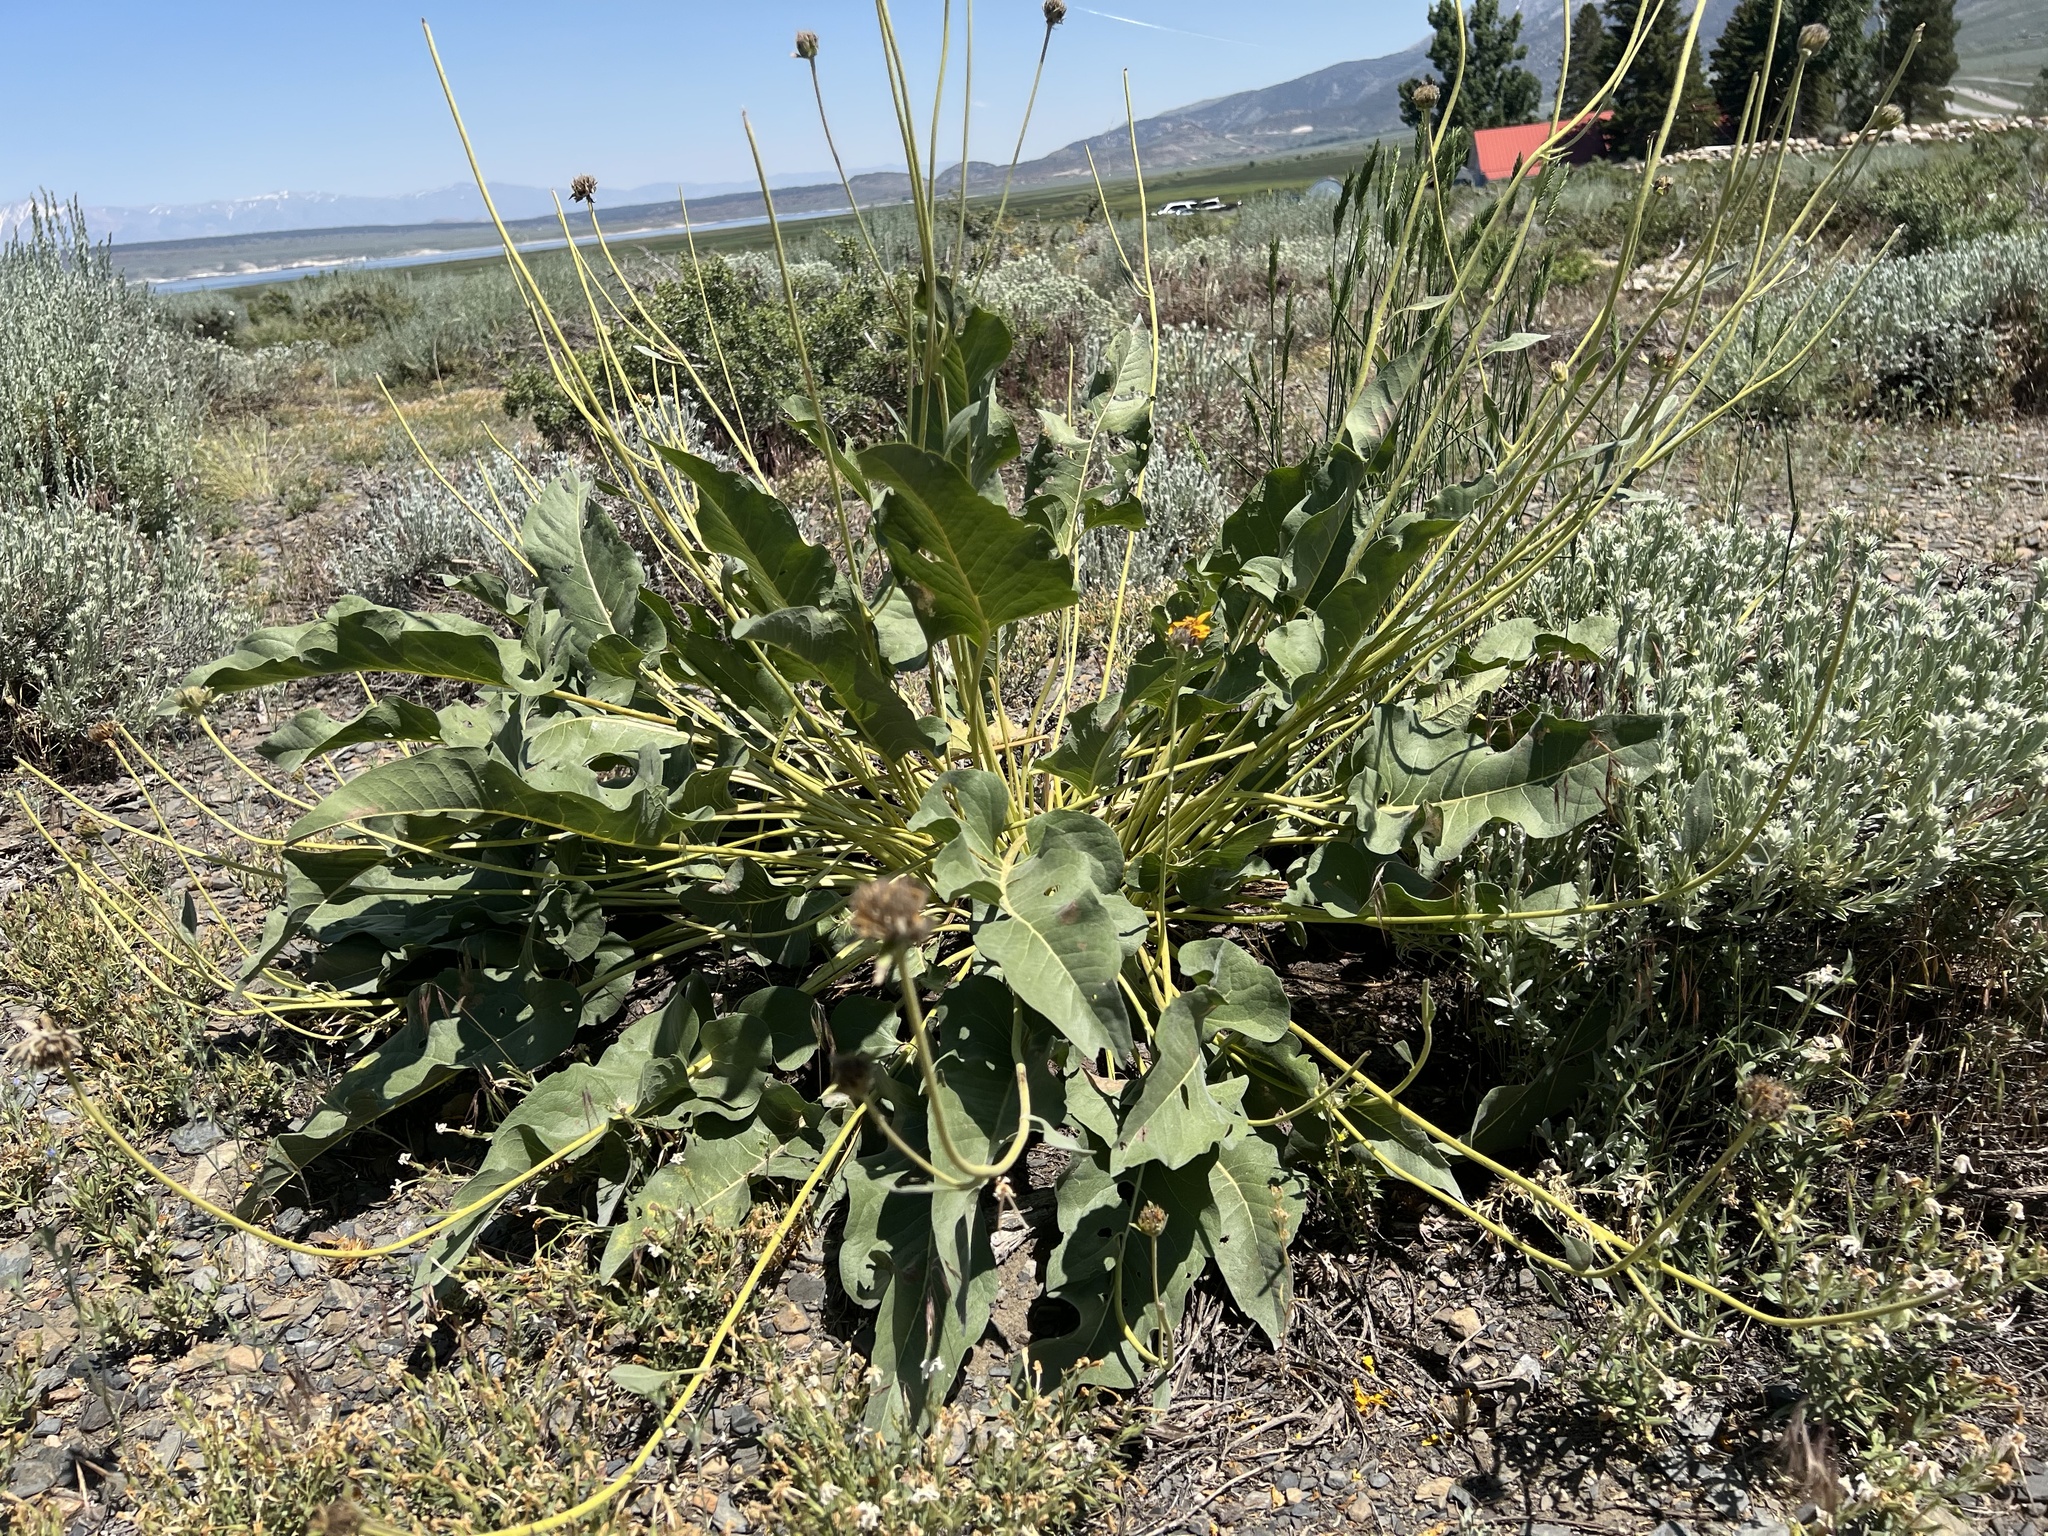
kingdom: Plantae
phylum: Tracheophyta
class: Magnoliopsida
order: Asterales
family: Asteraceae
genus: Wyethia
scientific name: Wyethia sagittata
